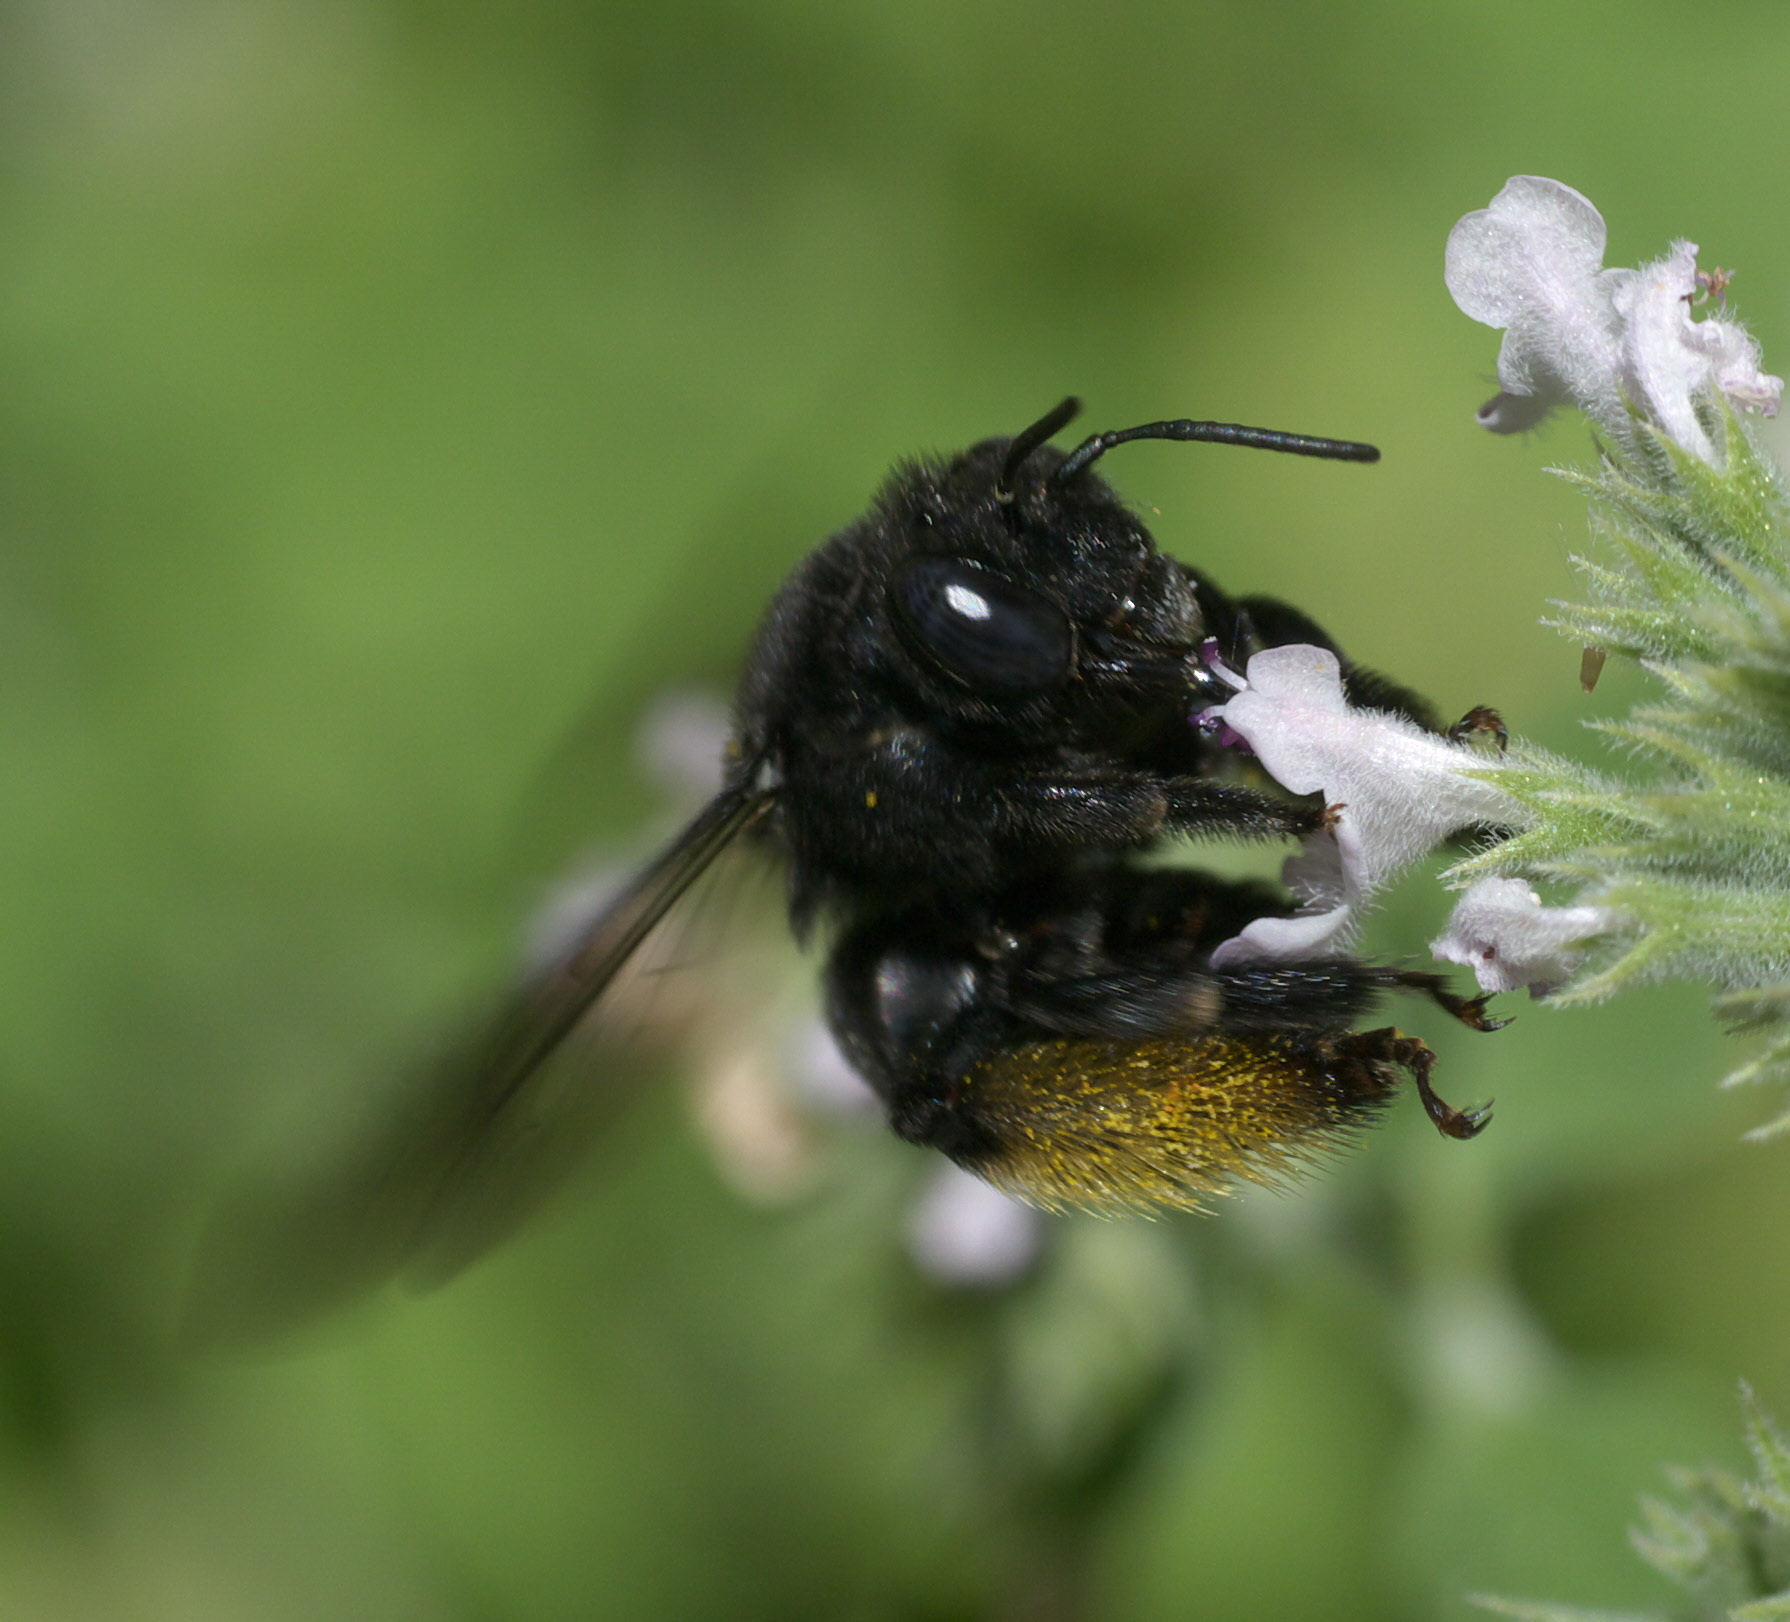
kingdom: Animalia
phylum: Arthropoda
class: Insecta
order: Hymenoptera
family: Apidae
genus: Melissodes
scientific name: Melissodes bimaculatus
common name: Two-spotted long-horned bee
